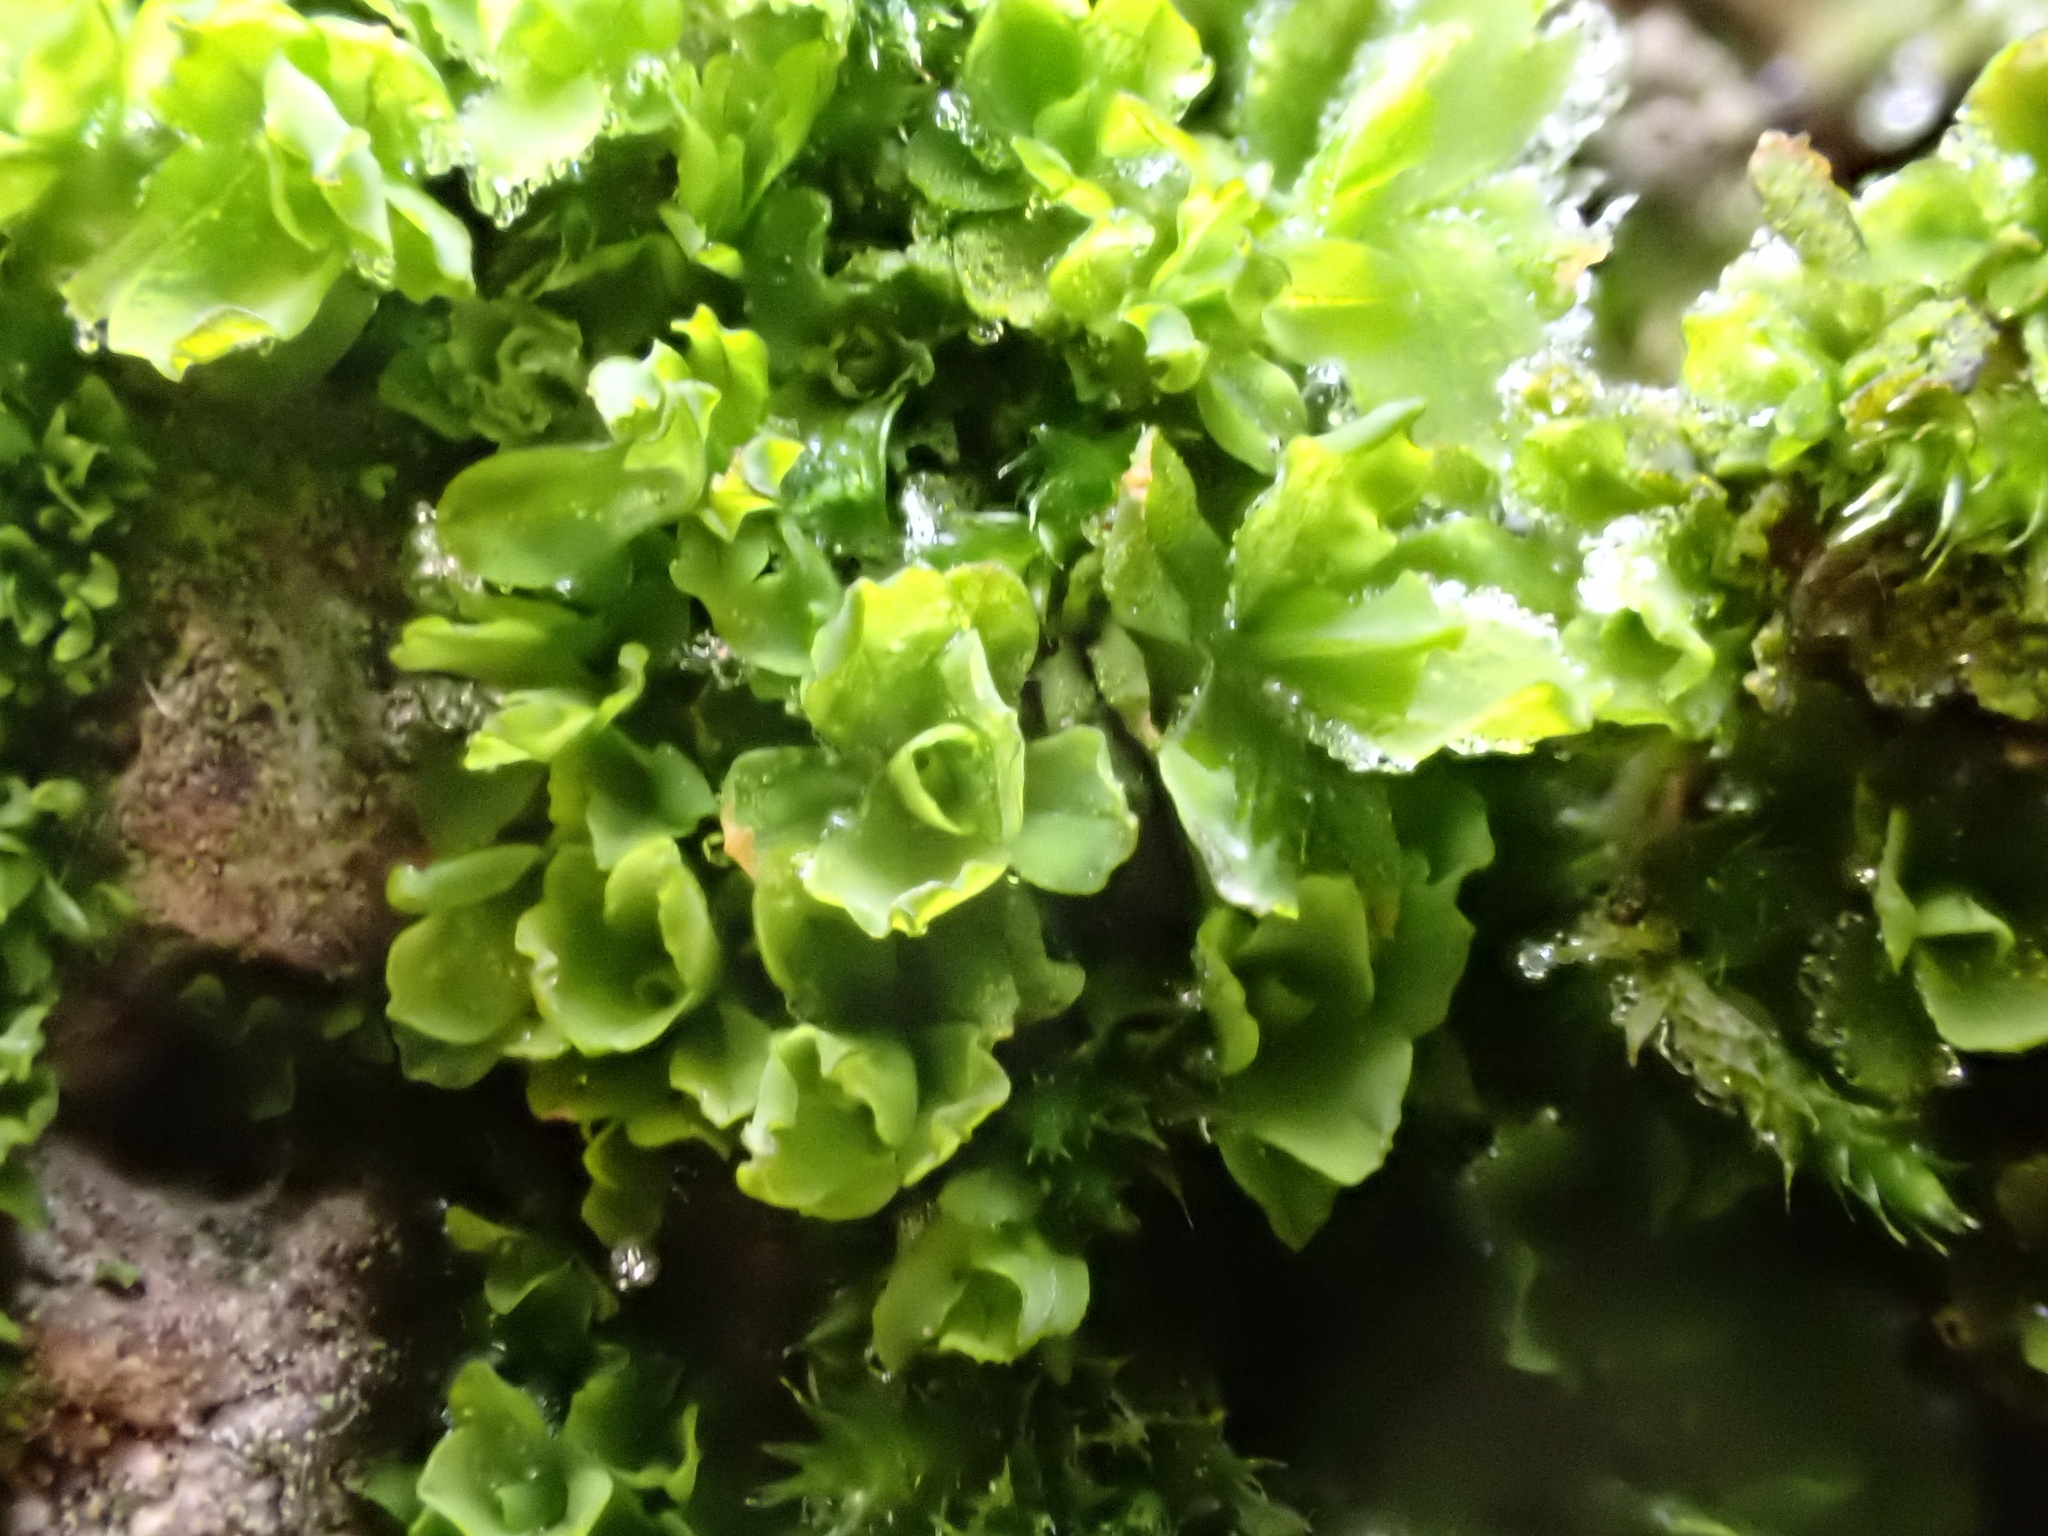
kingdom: Plantae
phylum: Bryophyta
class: Bryopsida
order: Pottiales
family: Pottiaceae
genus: Syntrichia
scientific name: Syntrichia latifolia
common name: Water screw-moss
